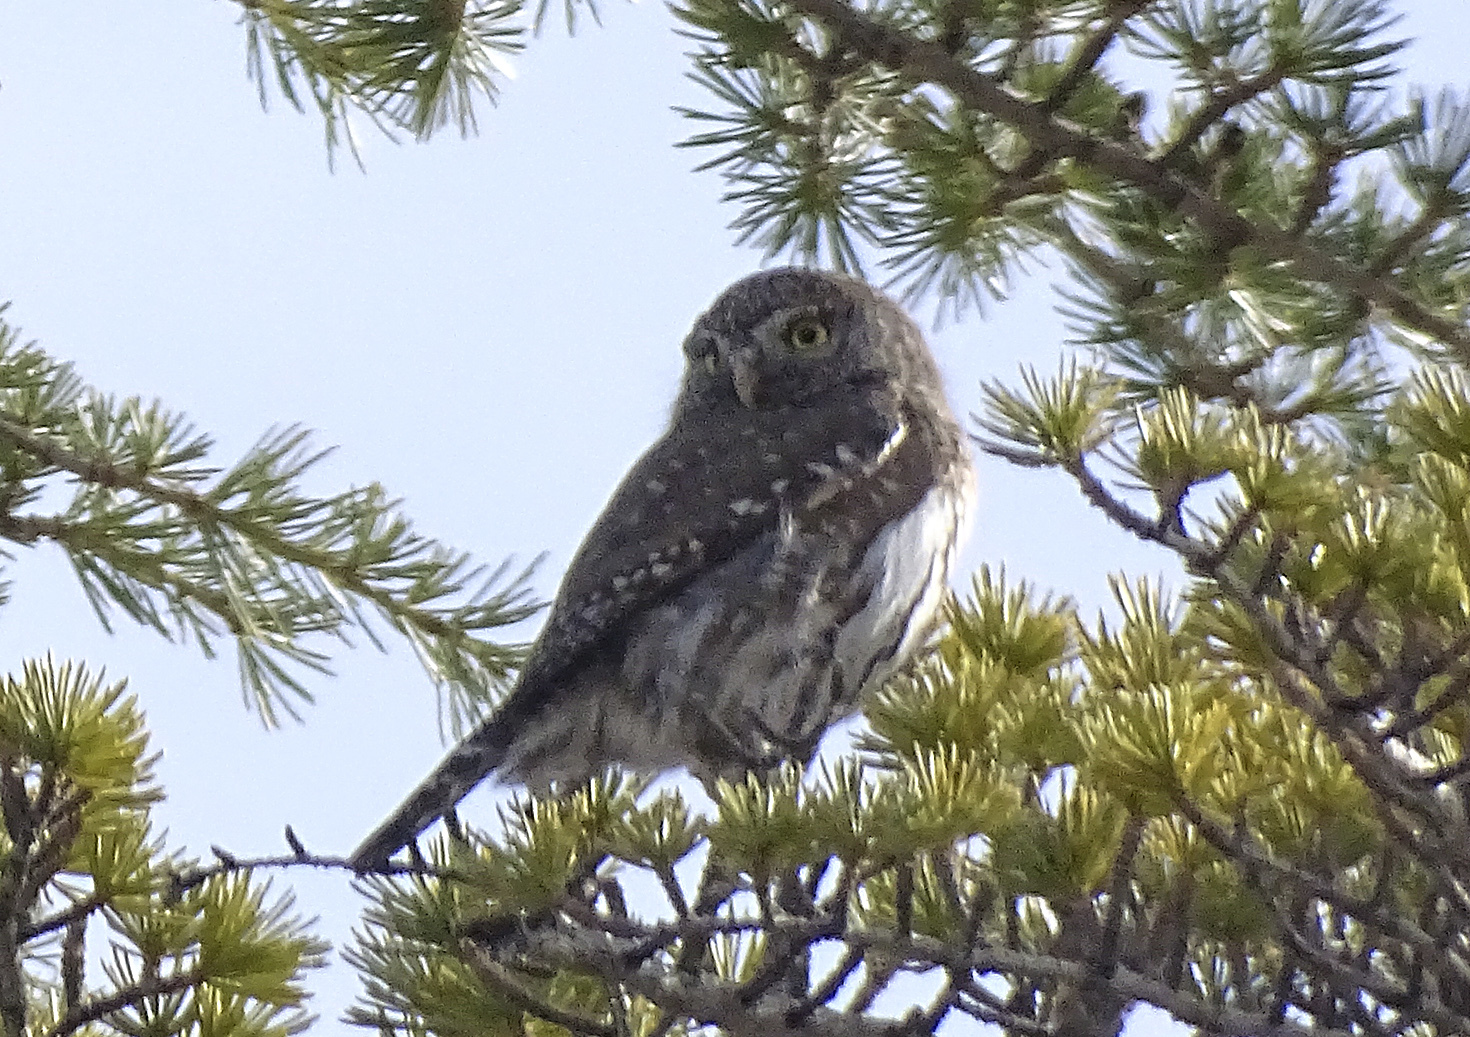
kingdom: Animalia
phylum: Chordata
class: Aves
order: Strigiformes
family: Strigidae
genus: Glaucidium
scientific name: Glaucidium gnoma
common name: Northern pygmy-owl
